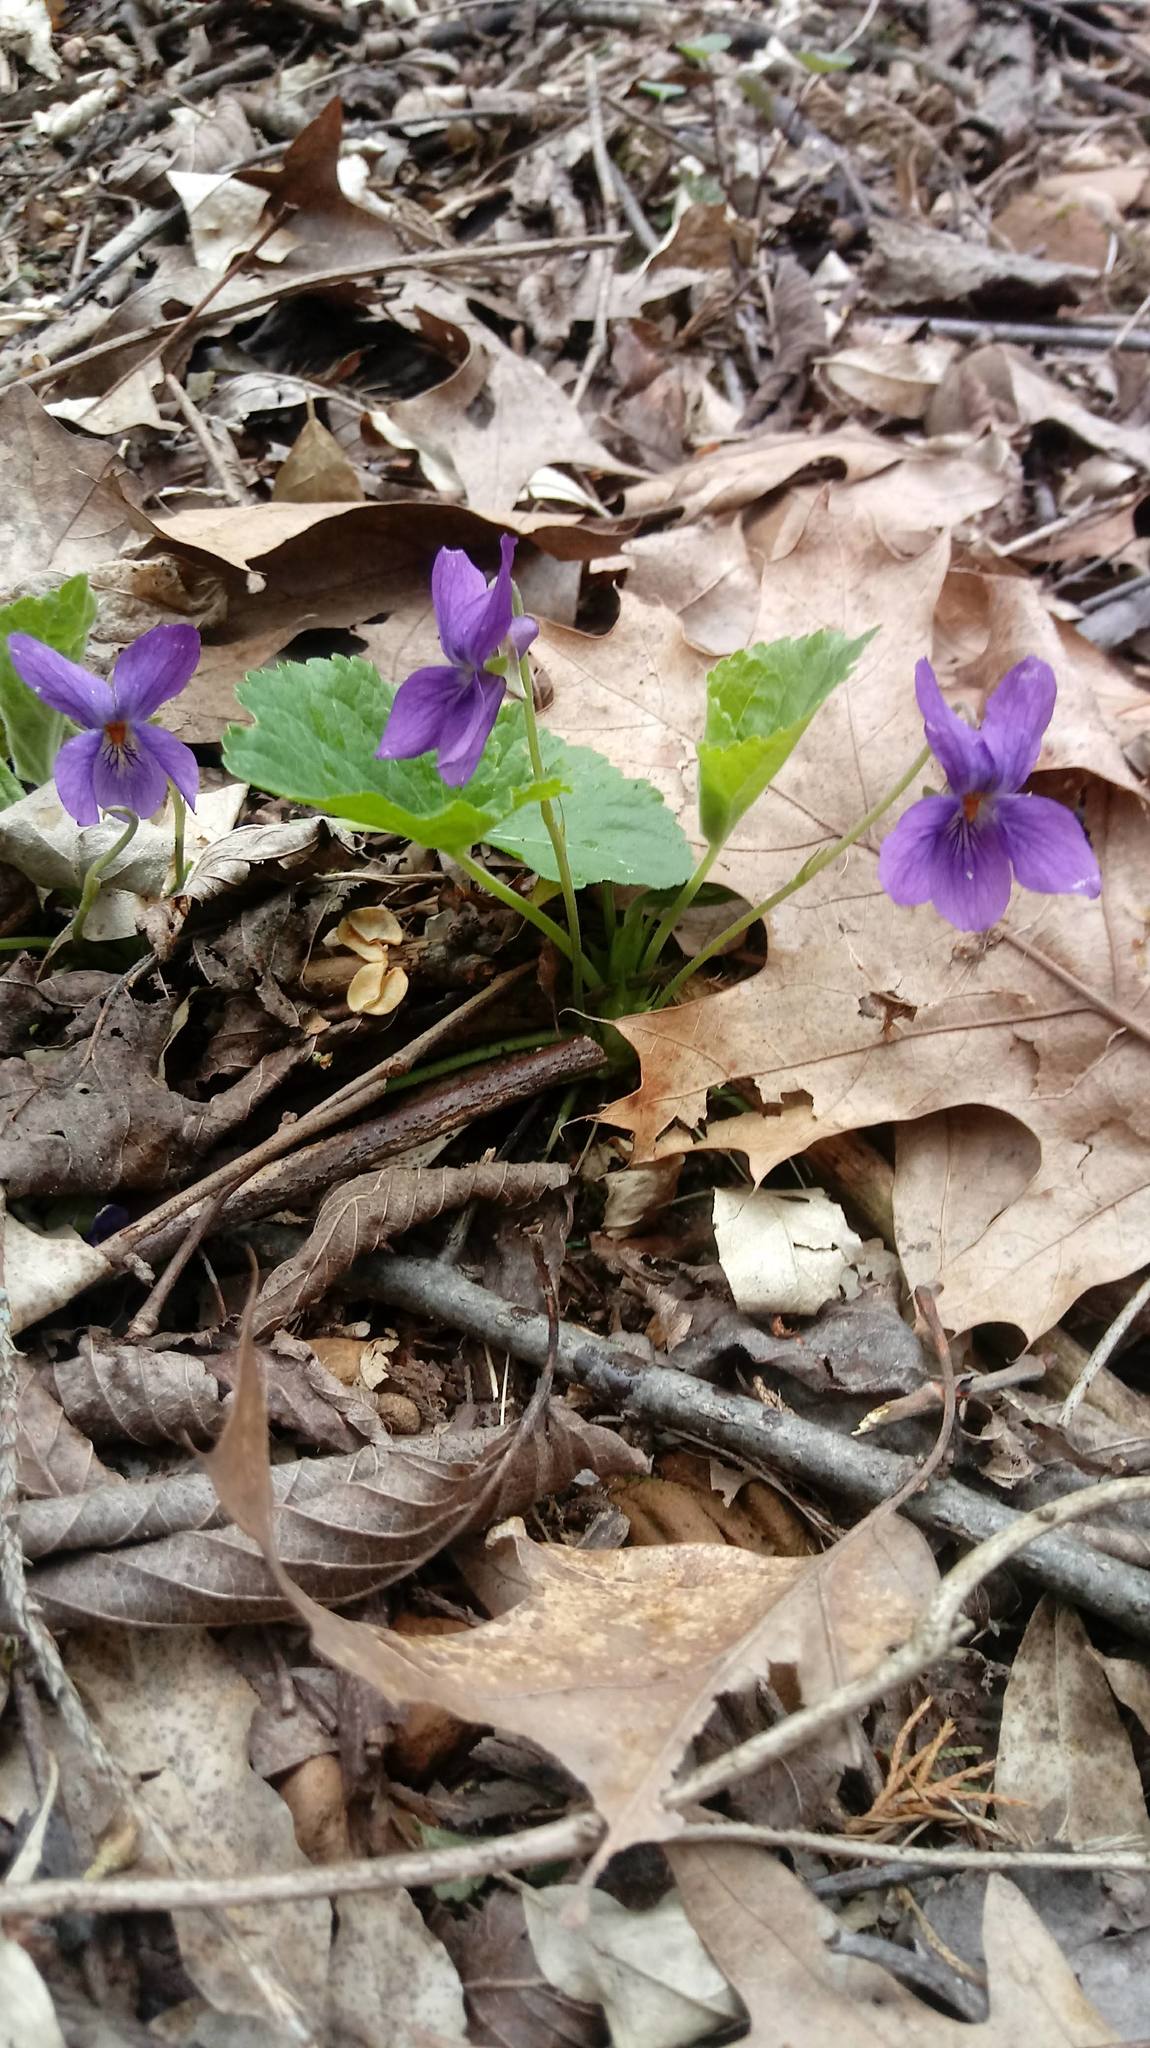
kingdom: Plantae
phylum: Tracheophyta
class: Magnoliopsida
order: Malpighiales
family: Violaceae
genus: Viola
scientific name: Viola sororia
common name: Dooryard violet
